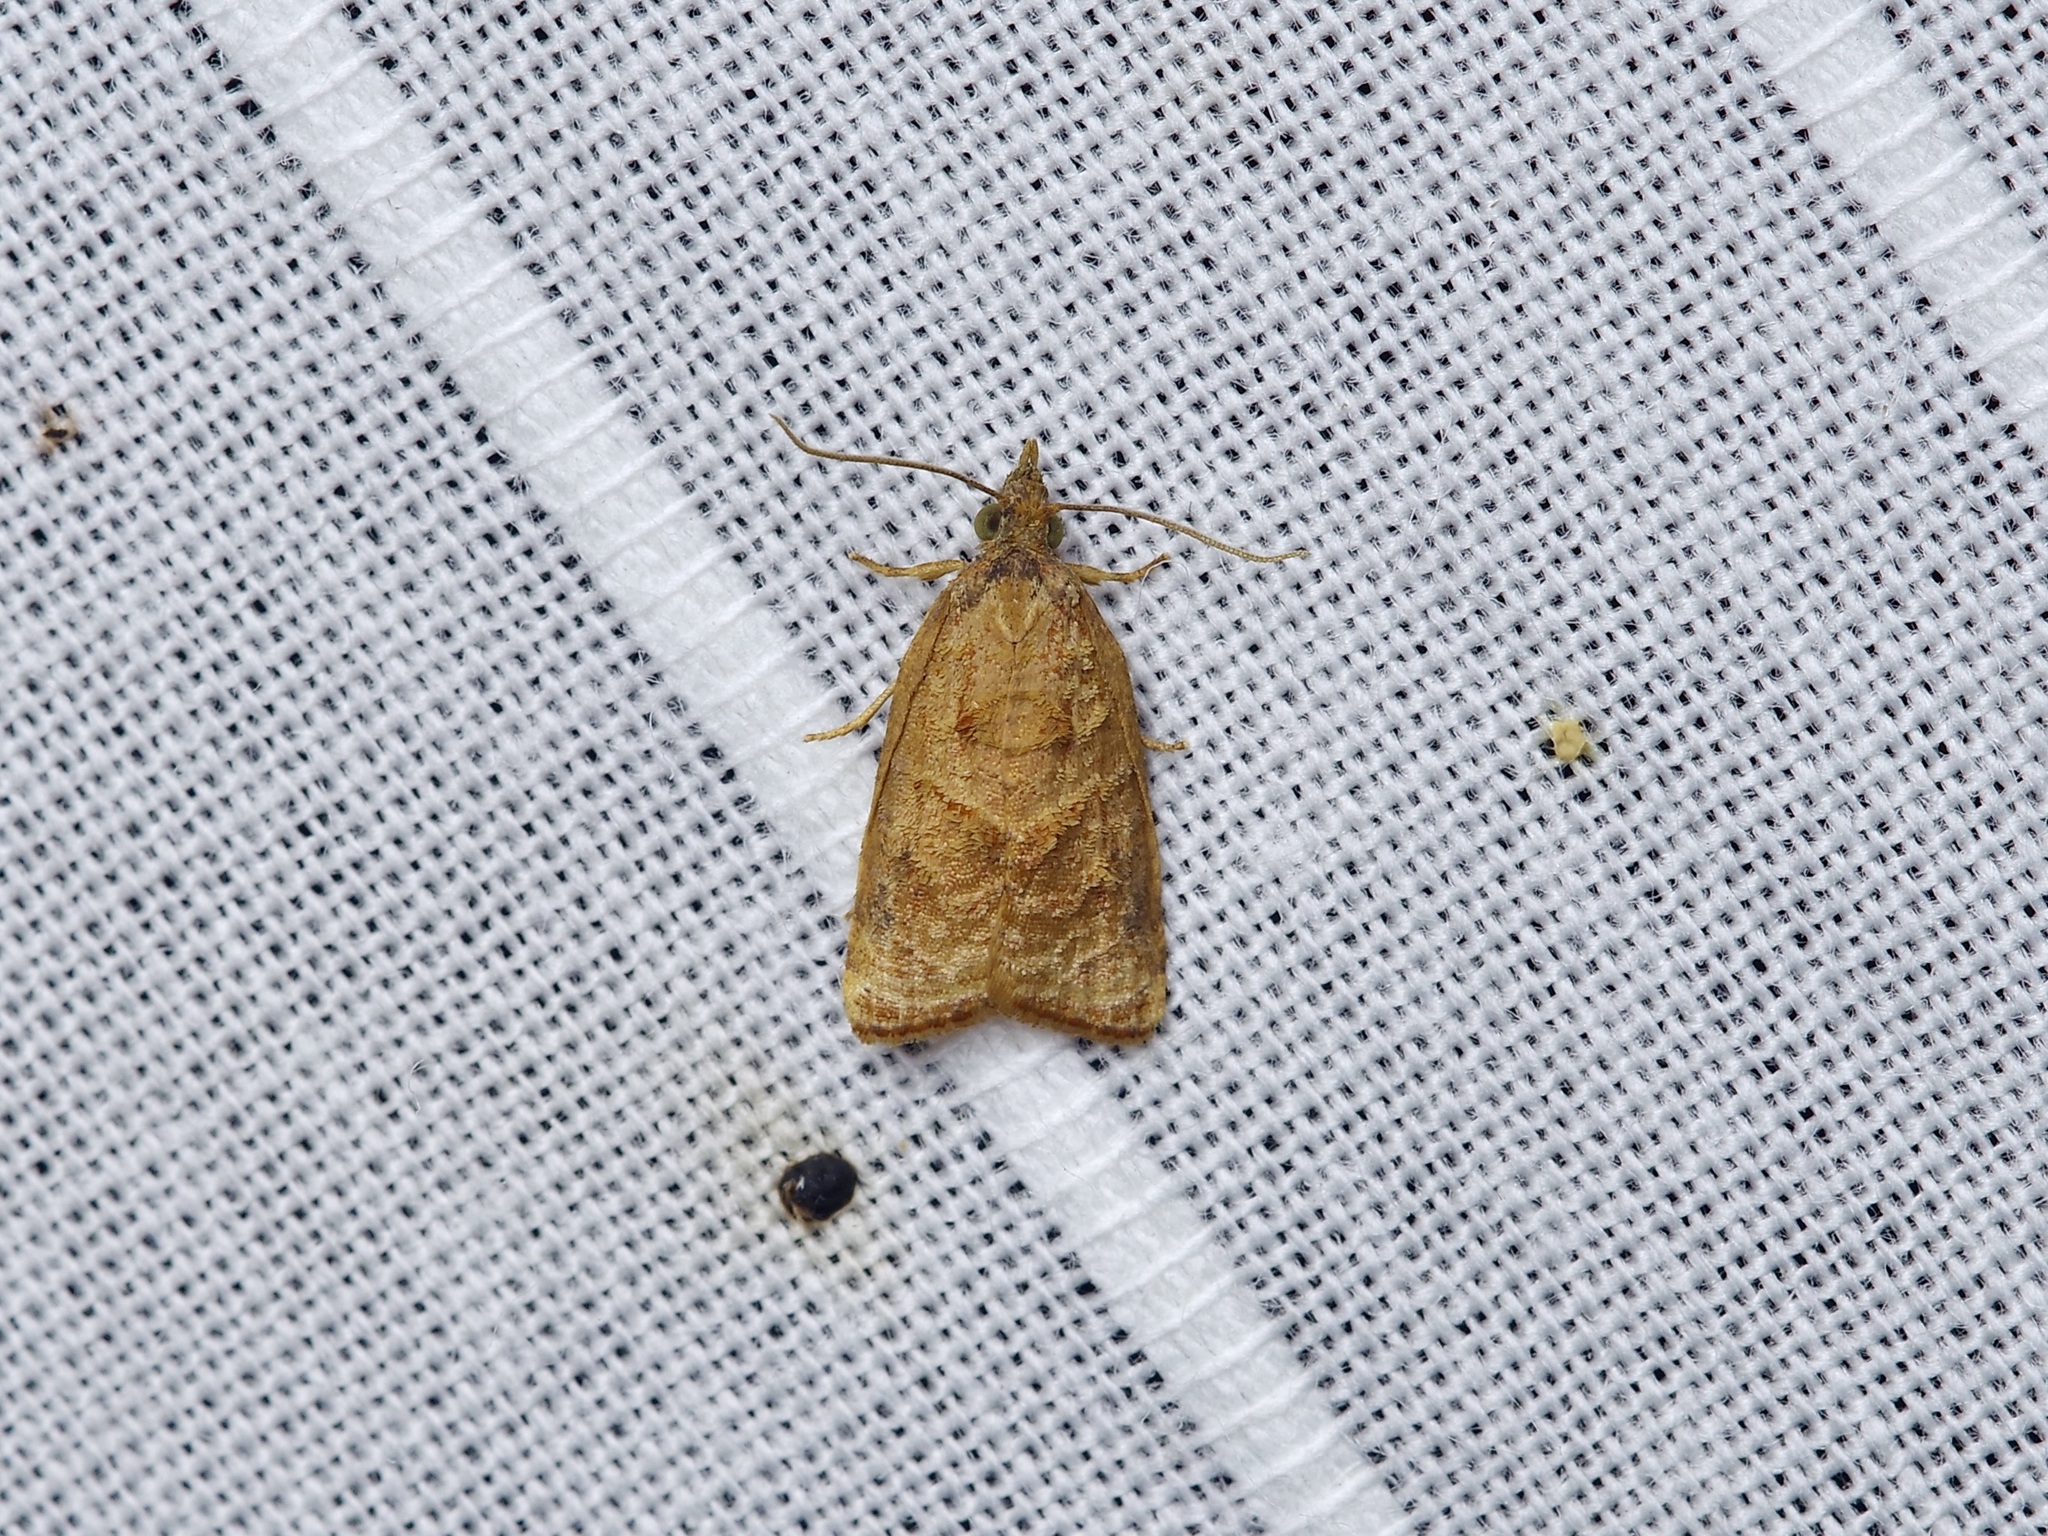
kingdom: Animalia
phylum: Arthropoda
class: Insecta
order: Lepidoptera
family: Tortricidae
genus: Platynota
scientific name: Platynota rostrana
